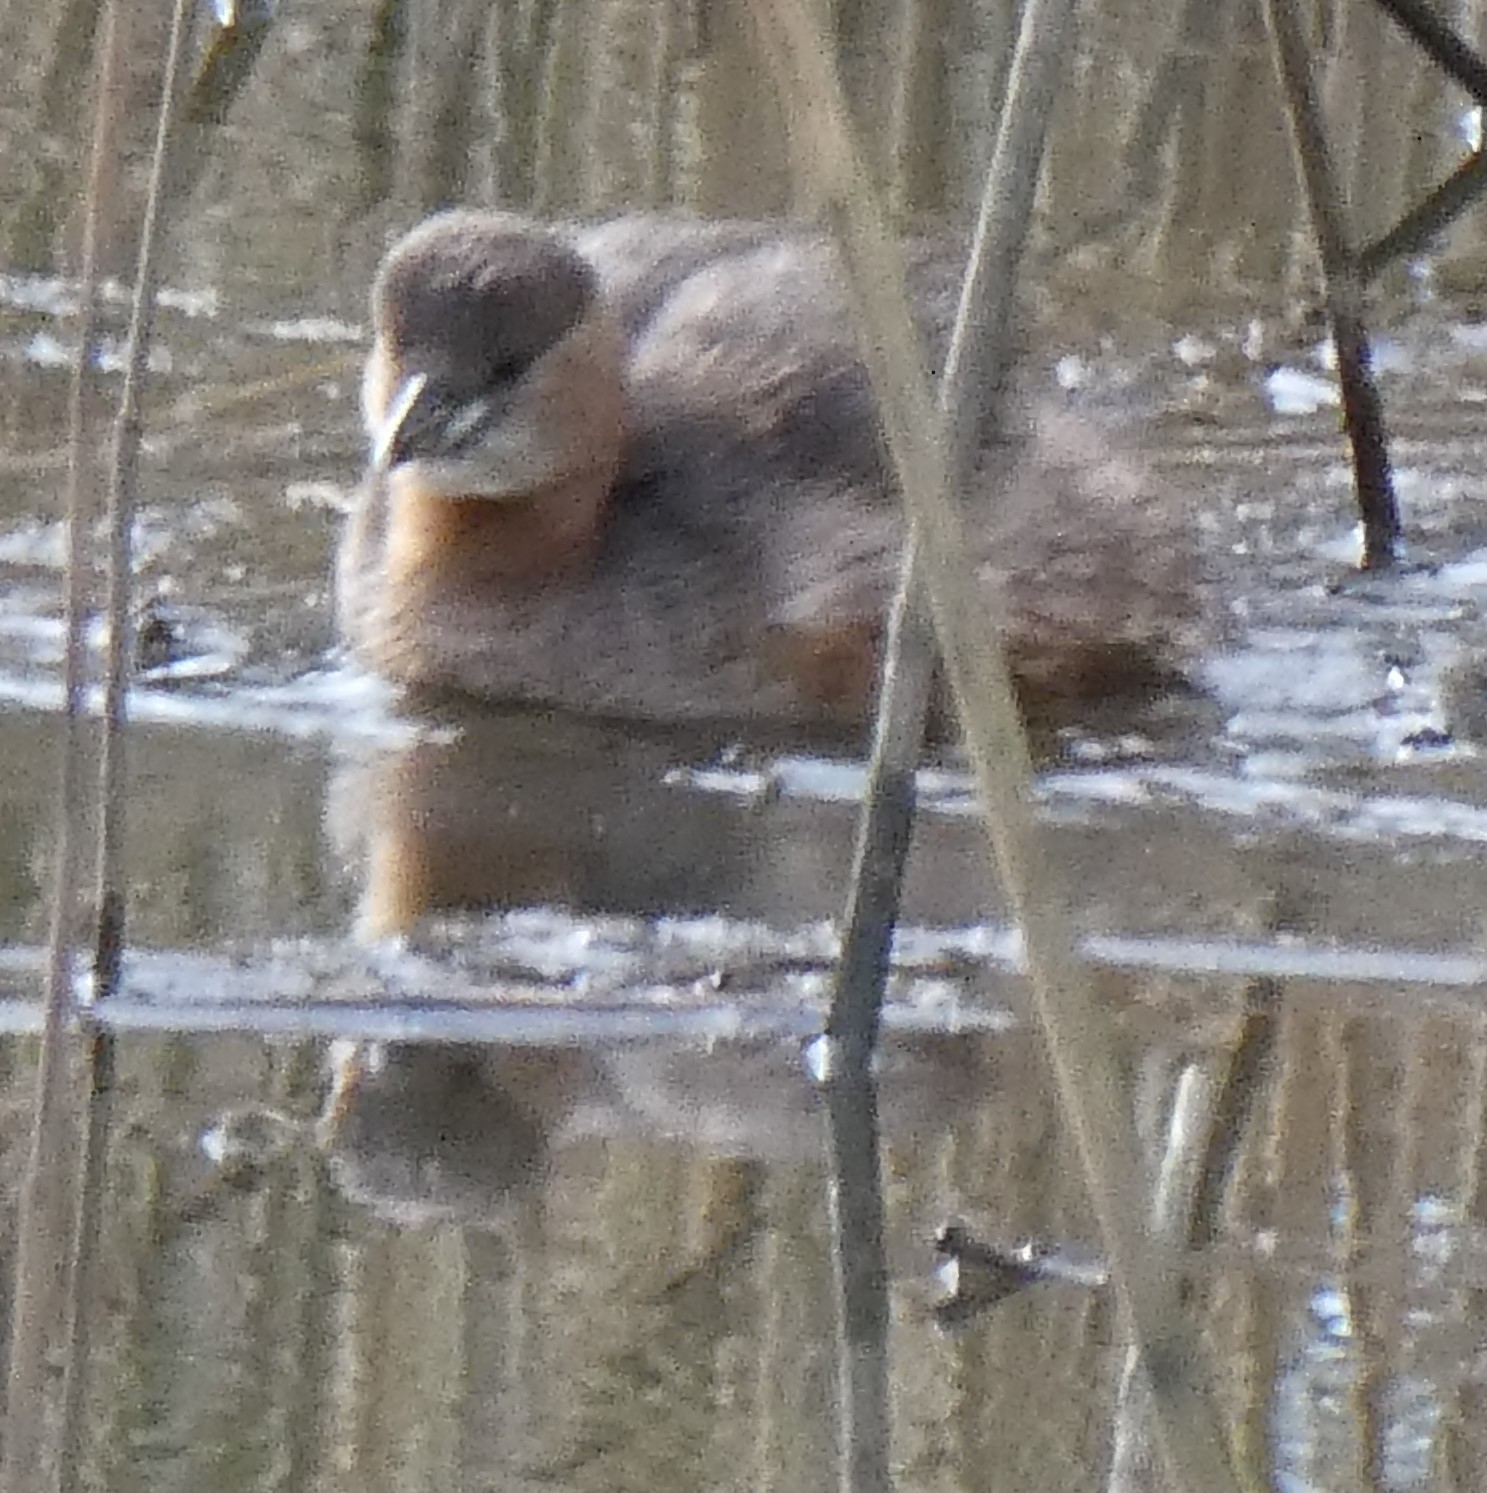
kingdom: Animalia
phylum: Chordata
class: Aves
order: Podicipediformes
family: Podicipedidae
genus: Tachybaptus
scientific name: Tachybaptus ruficollis
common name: Little grebe
